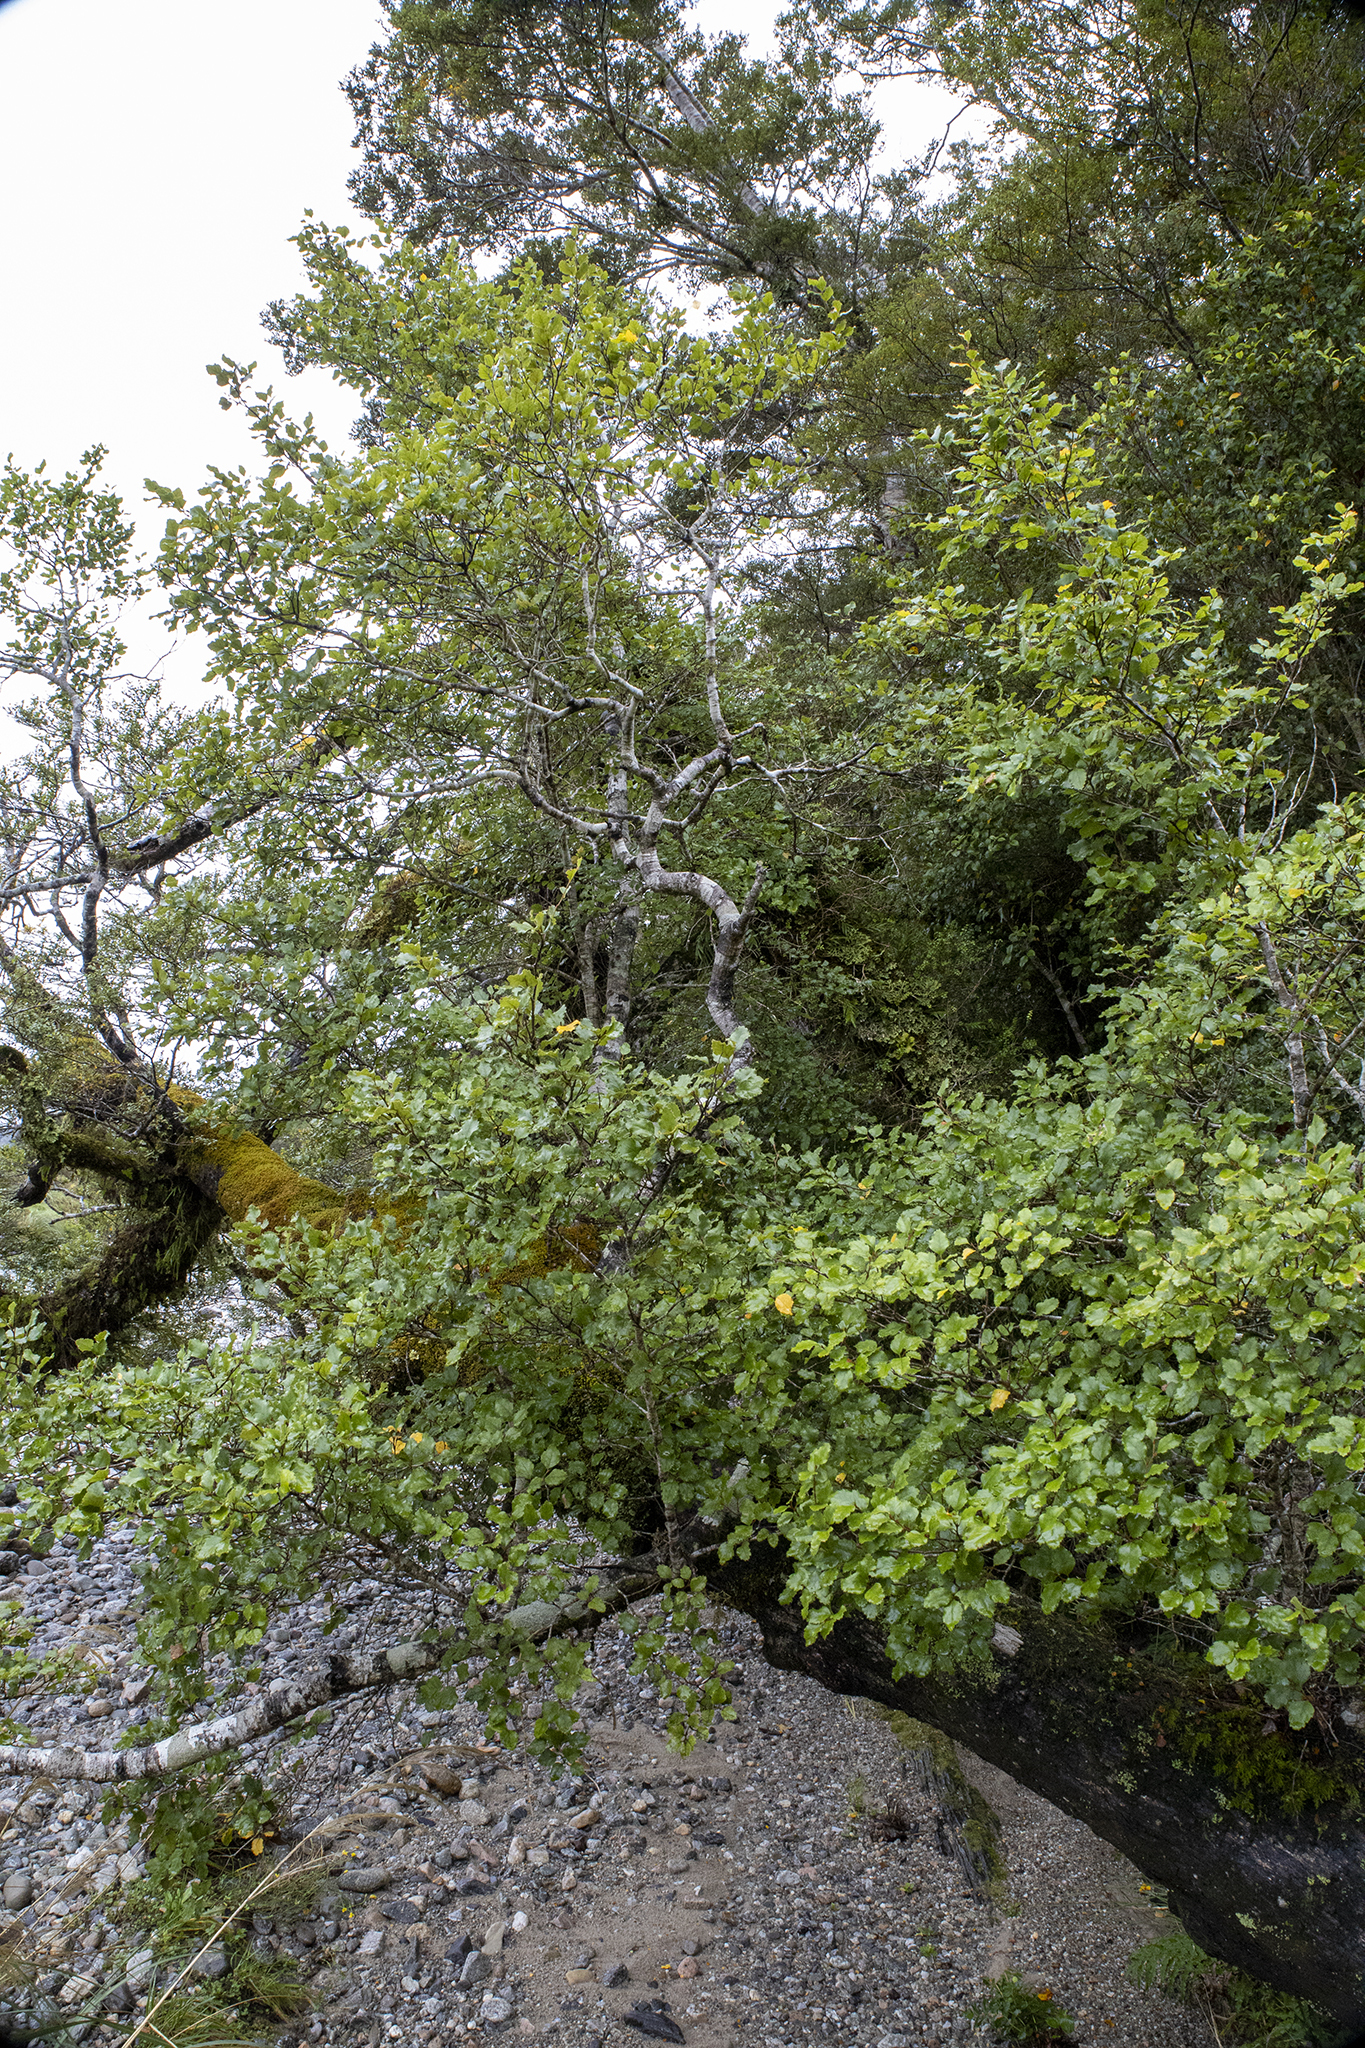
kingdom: Plantae
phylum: Tracheophyta
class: Magnoliopsida
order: Fagales
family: Nothofagaceae
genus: Nothofagus
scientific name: Nothofagus fusca
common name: Red beech
